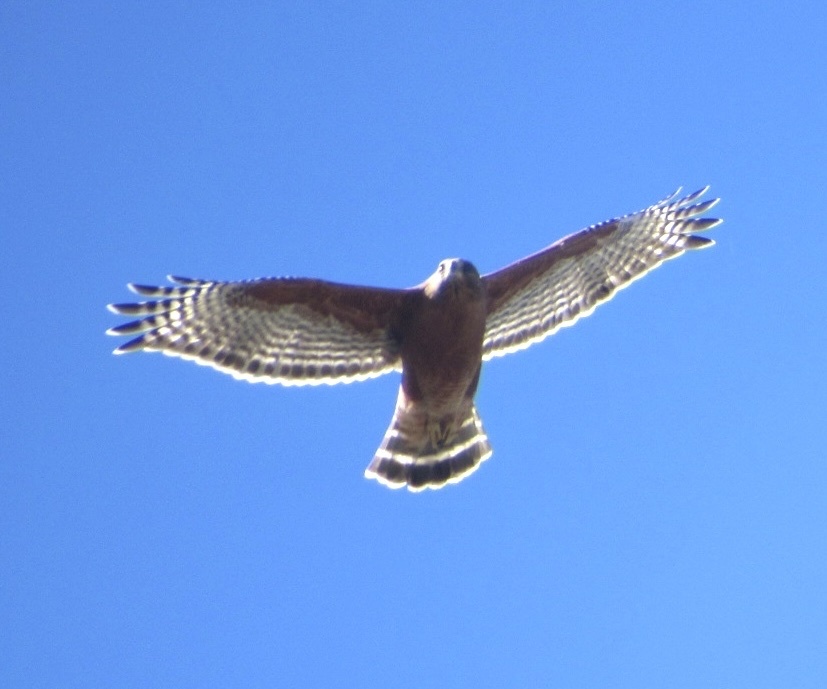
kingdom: Animalia
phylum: Chordata
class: Aves
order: Accipitriformes
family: Accipitridae
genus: Buteo
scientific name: Buteo lineatus
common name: Red-shouldered hawk
